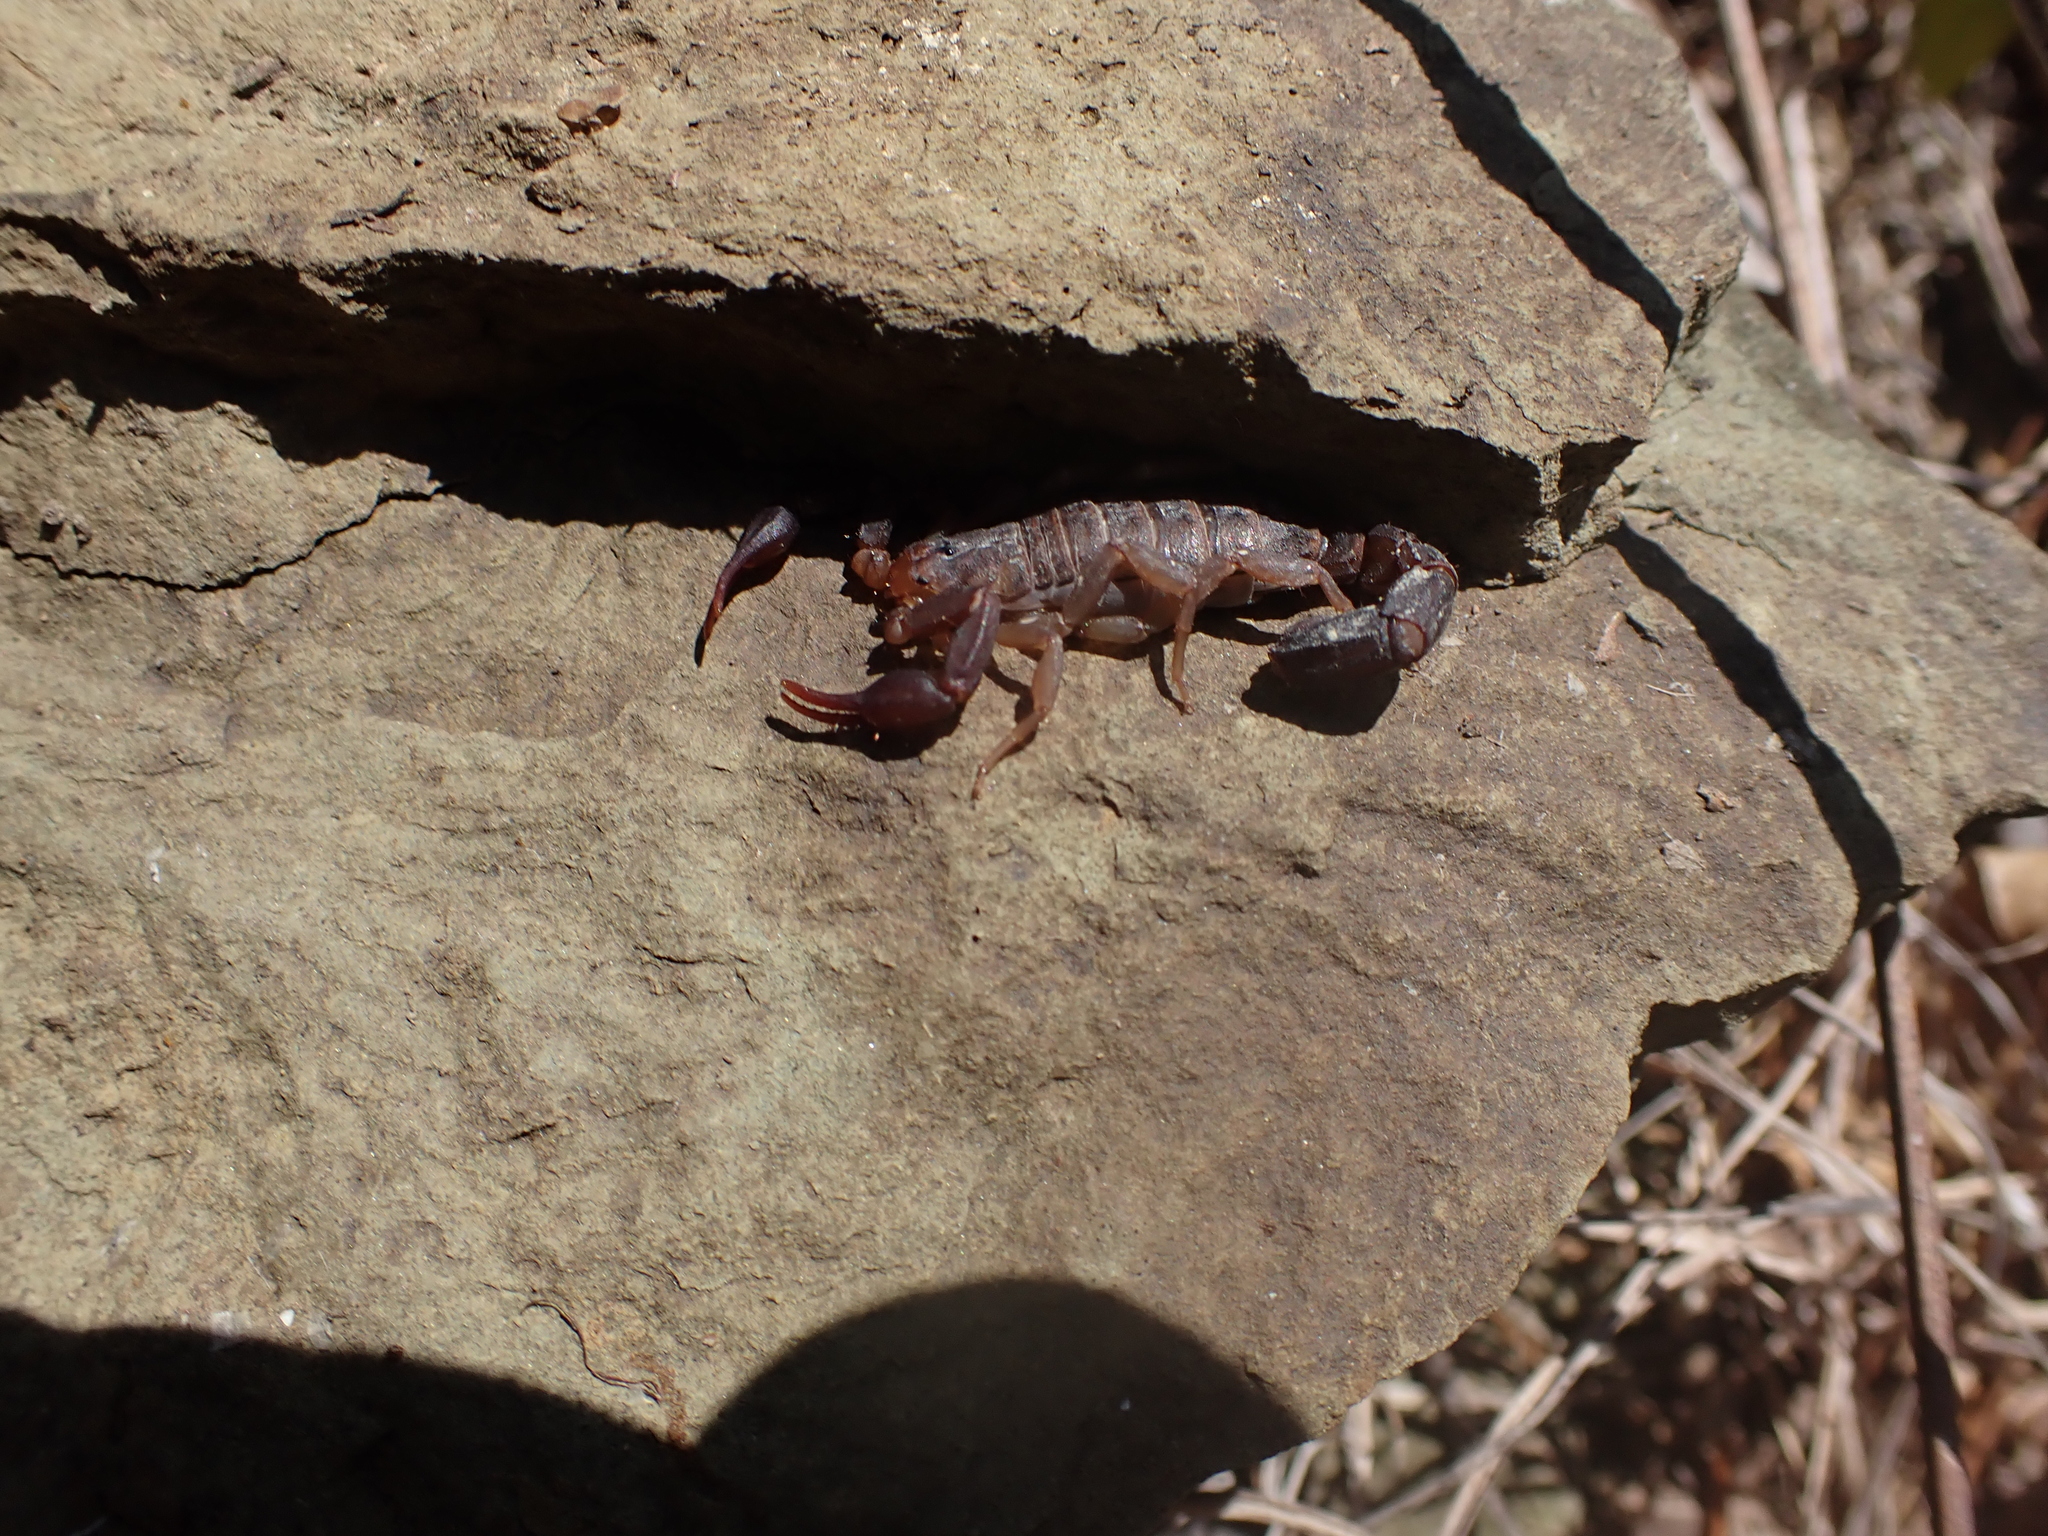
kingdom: Animalia
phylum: Arthropoda
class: Arachnida
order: Scorpiones
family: Vaejovidae
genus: Vaejovis
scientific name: Vaejovis carolinianus
